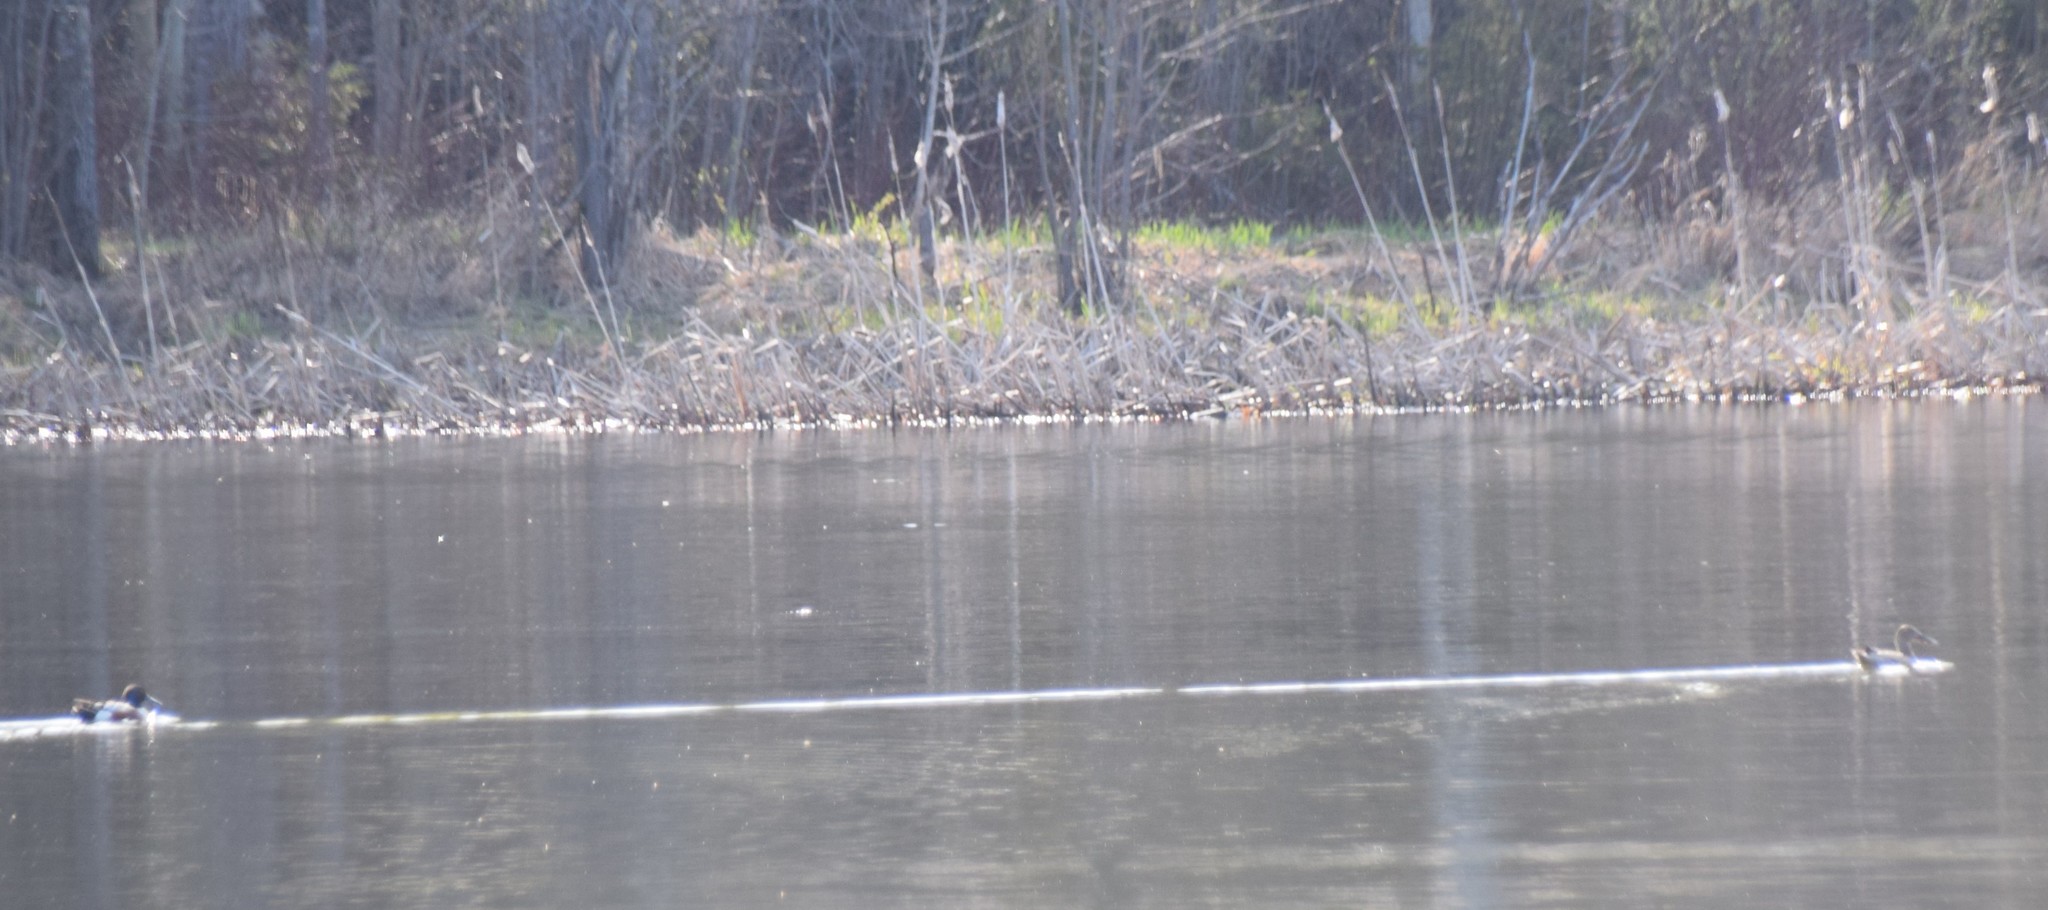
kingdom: Animalia
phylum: Chordata
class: Aves
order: Anseriformes
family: Anatidae
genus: Spatula
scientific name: Spatula clypeata
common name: Northern shoveler
